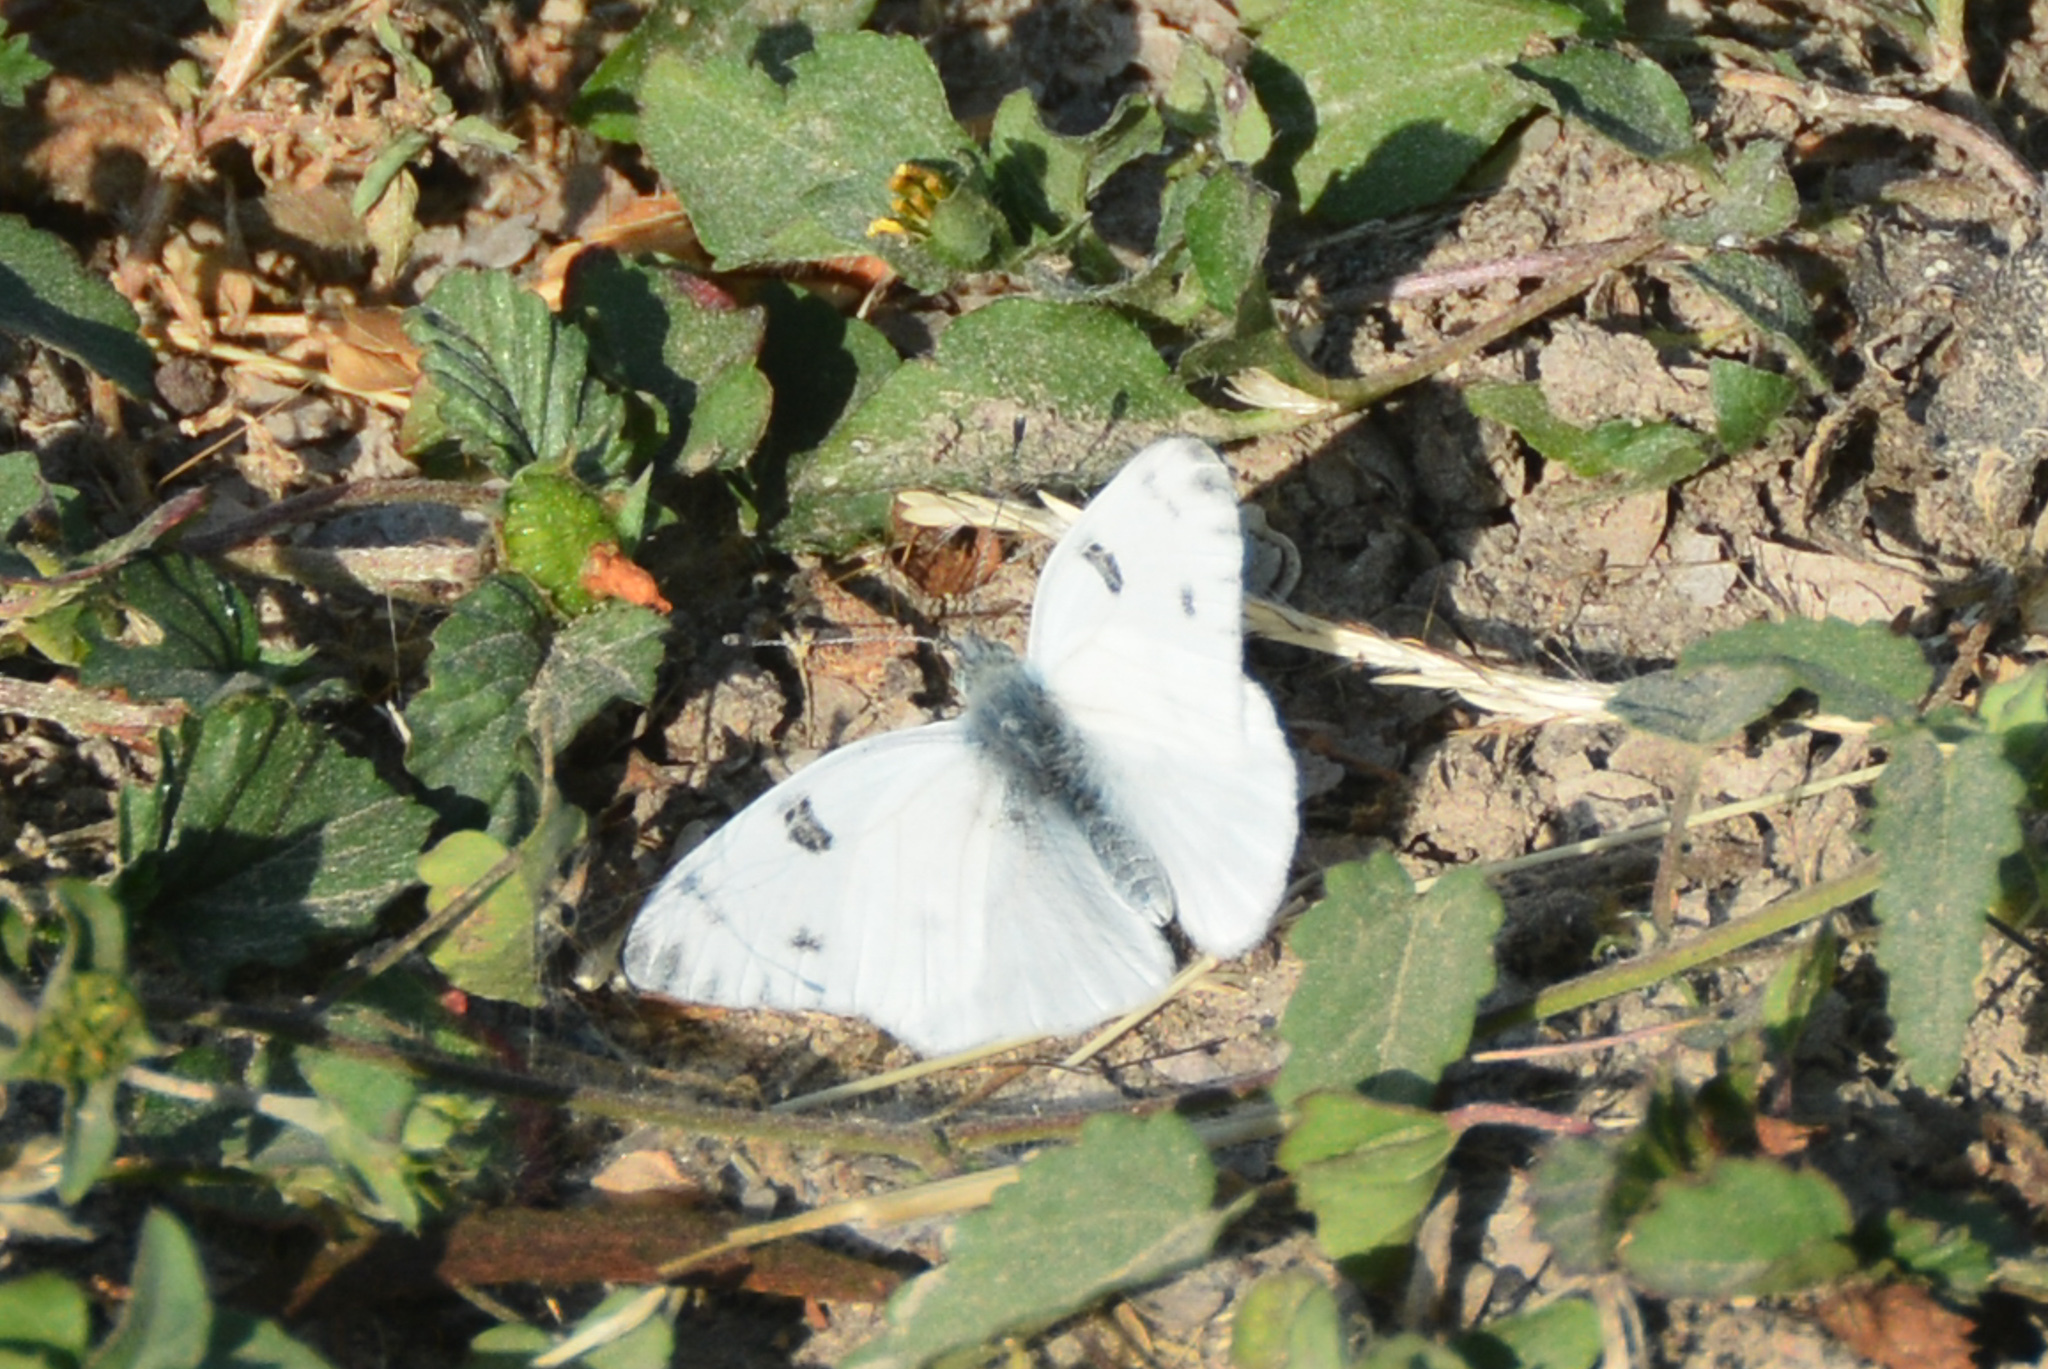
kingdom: Animalia
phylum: Arthropoda
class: Insecta
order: Lepidoptera
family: Pieridae
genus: Pontia
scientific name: Pontia protodice
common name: Checkered white
